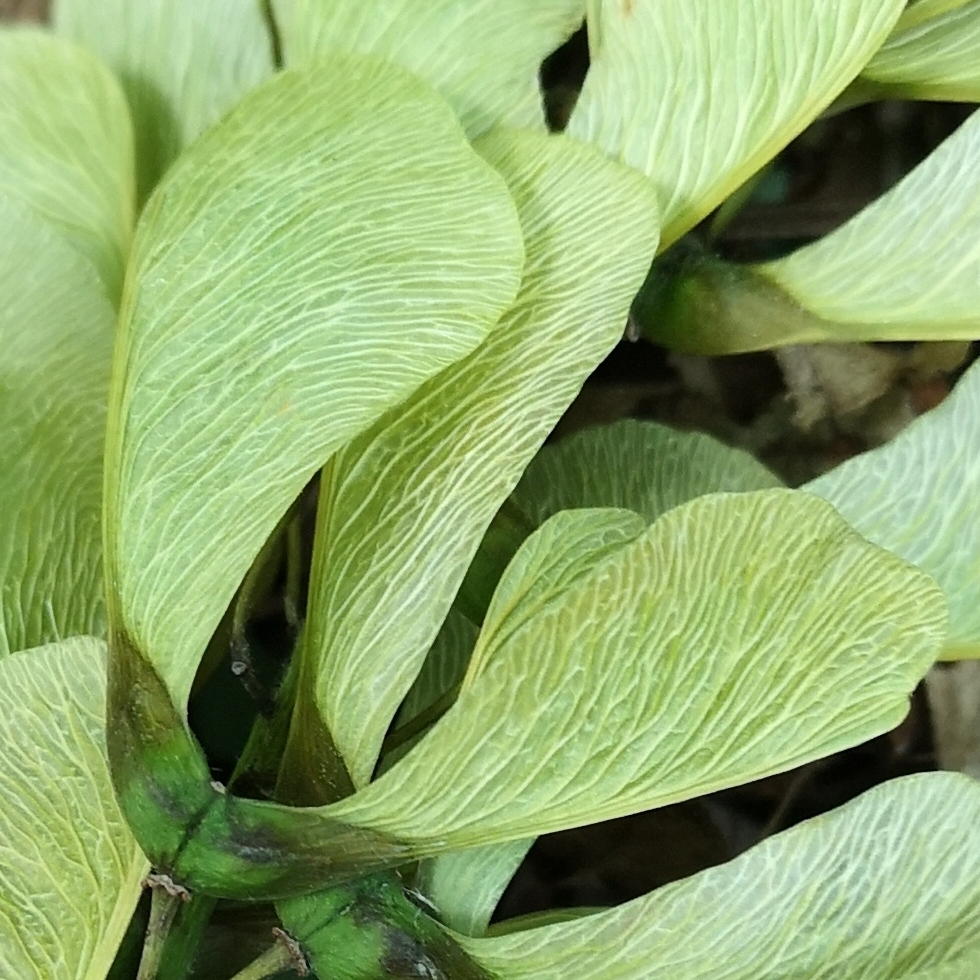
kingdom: Plantae
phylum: Tracheophyta
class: Magnoliopsida
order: Sapindales
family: Sapindaceae
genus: Acer
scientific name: Acer pseudoplatanus
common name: Sycamore
